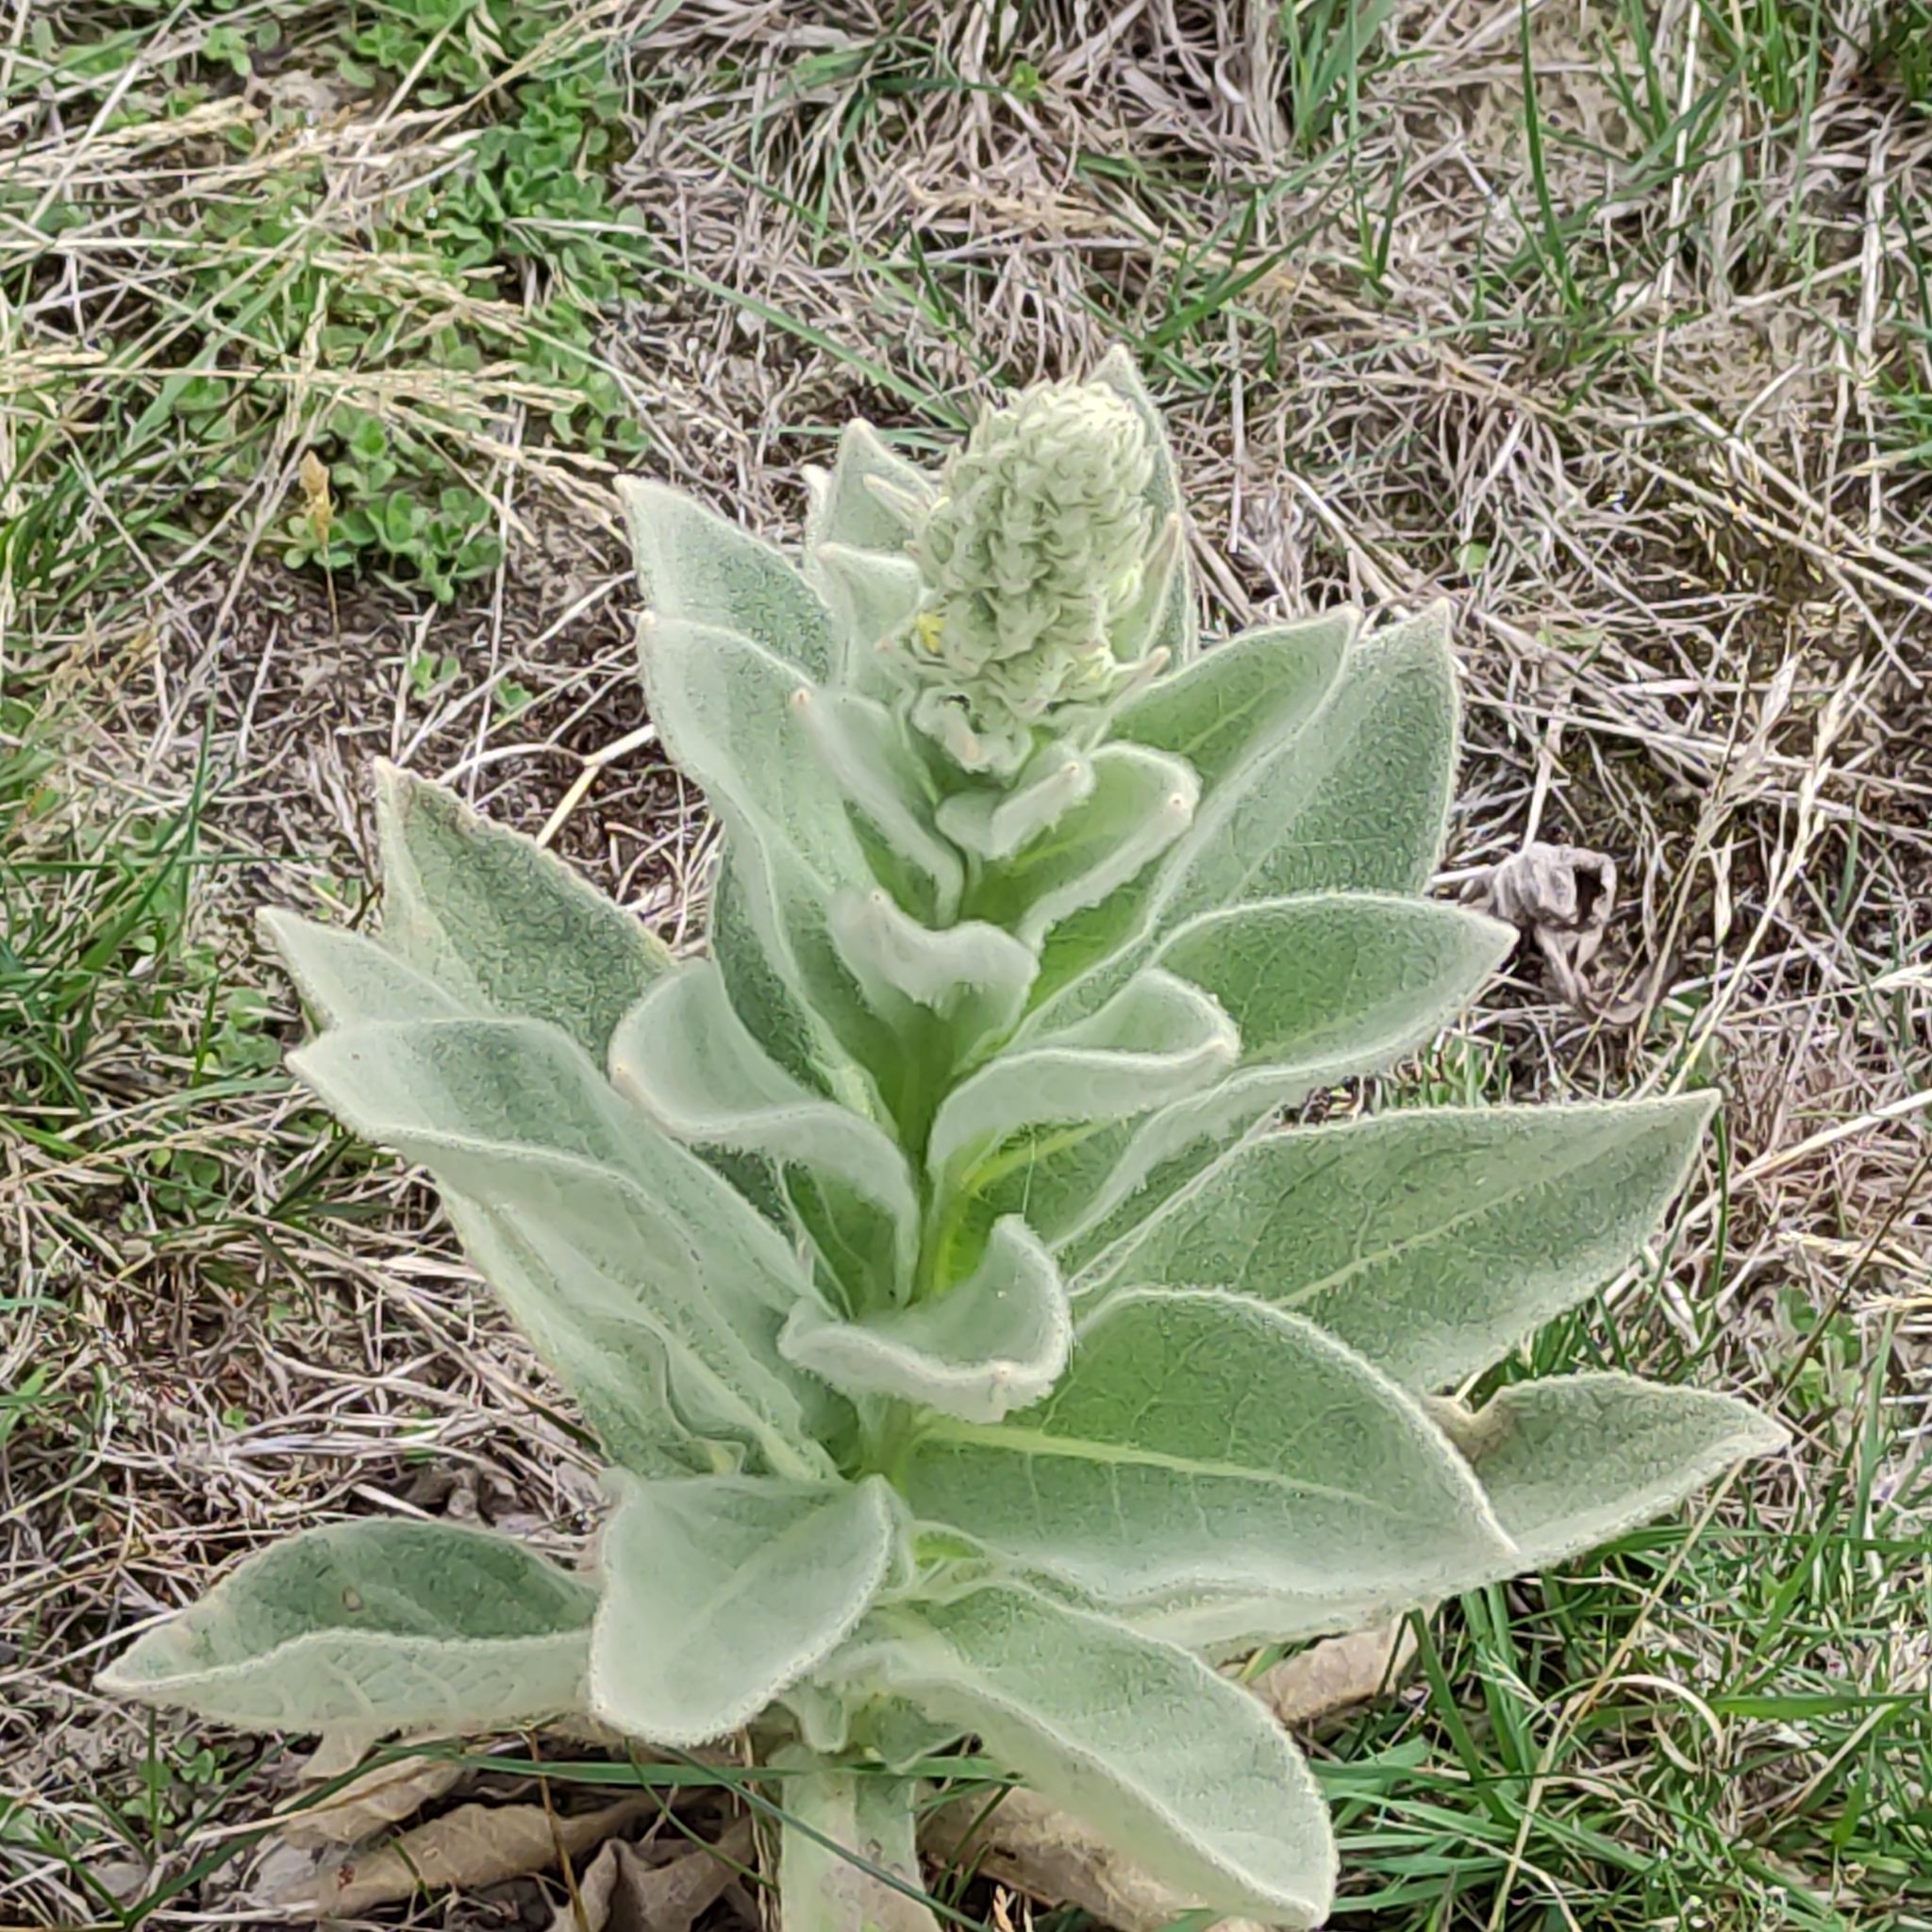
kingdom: Plantae
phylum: Tracheophyta
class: Magnoliopsida
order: Lamiales
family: Scrophulariaceae
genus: Verbascum
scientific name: Verbascum thapsus
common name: Common mullein
